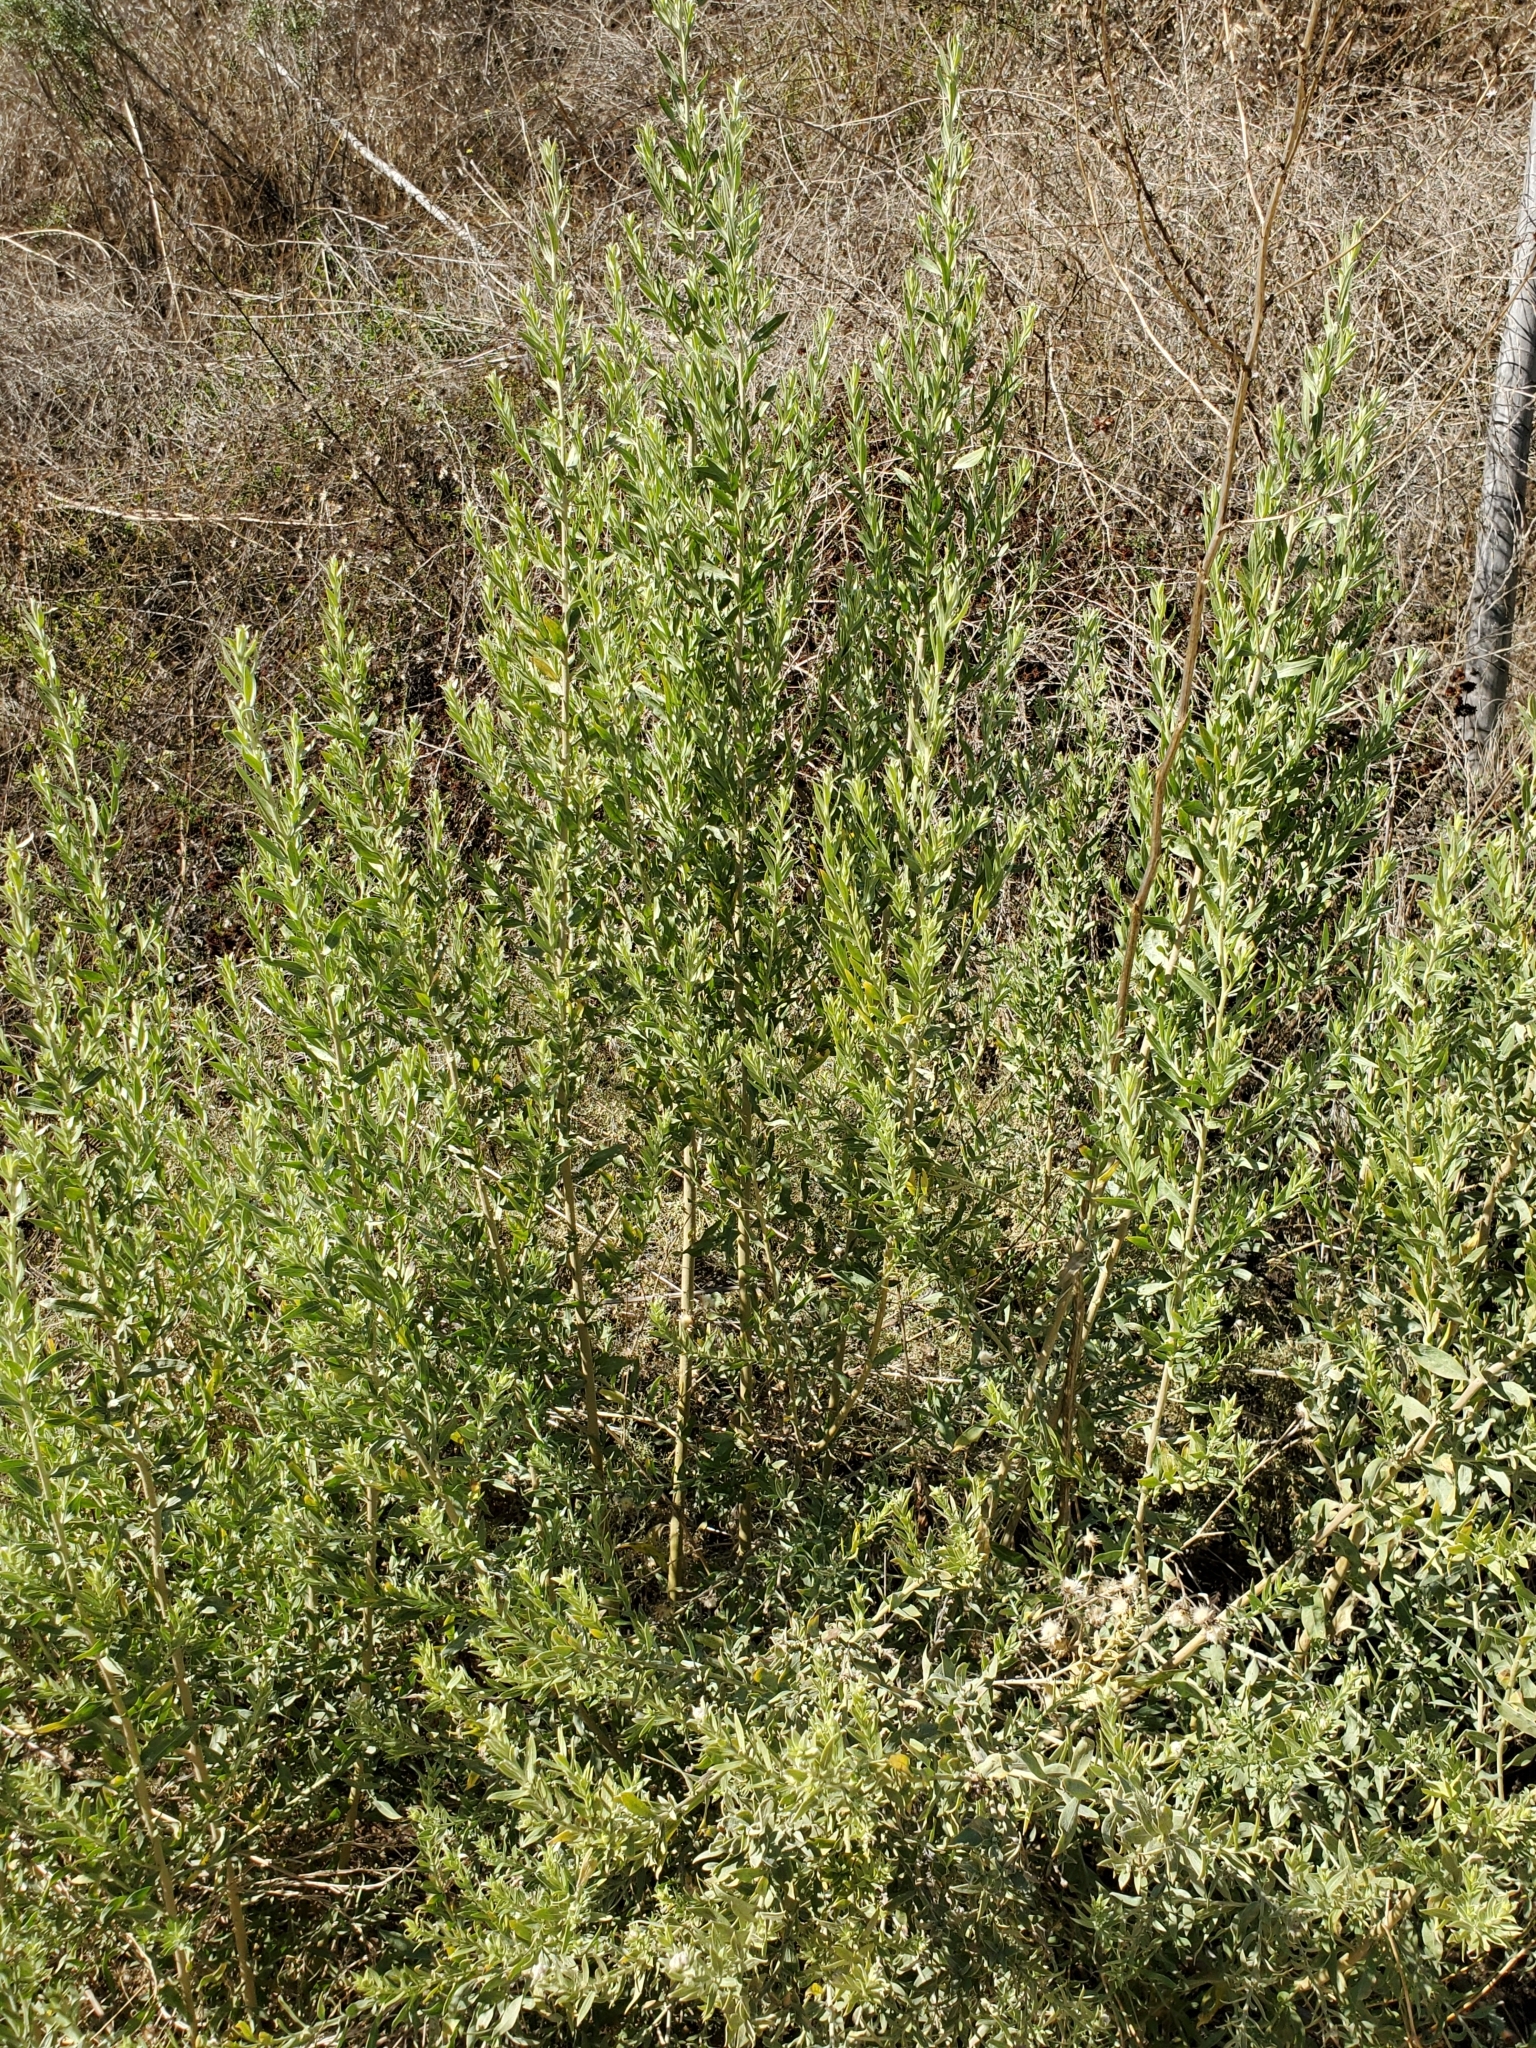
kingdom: Plantae
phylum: Tracheophyta
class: Magnoliopsida
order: Asterales
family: Asteraceae
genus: Pluchea
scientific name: Pluchea sericea
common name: Arrow-weed
